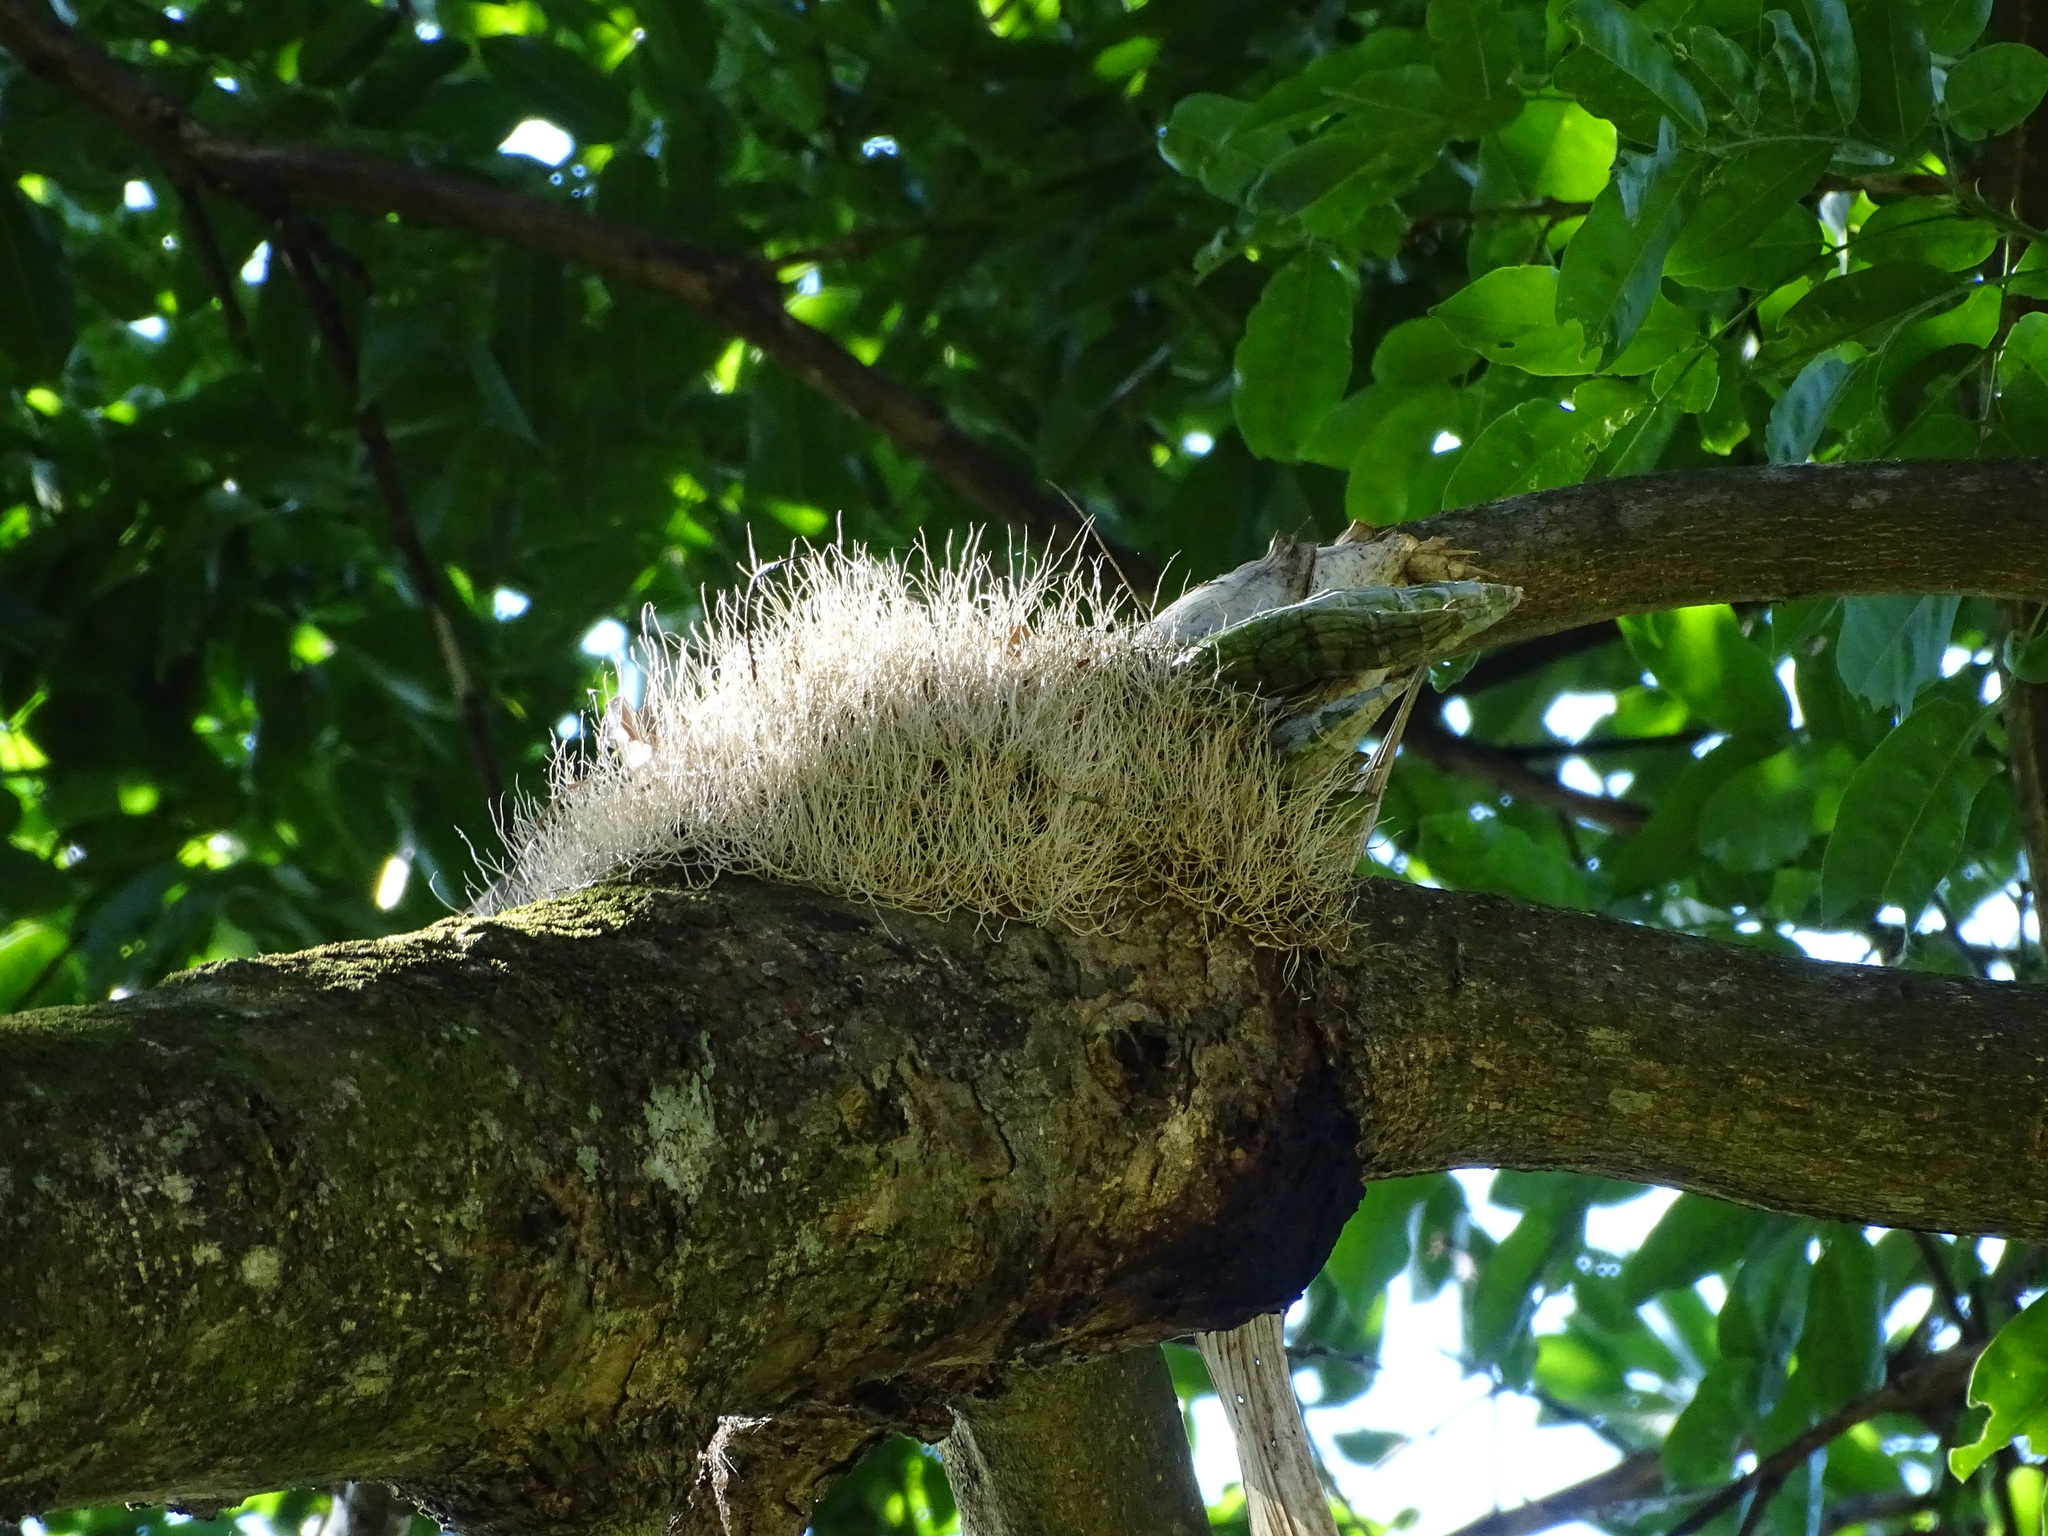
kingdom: Plantae
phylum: Tracheophyta
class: Liliopsida
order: Asparagales
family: Orchidaceae
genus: Catasetum
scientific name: Catasetum integerrimum
